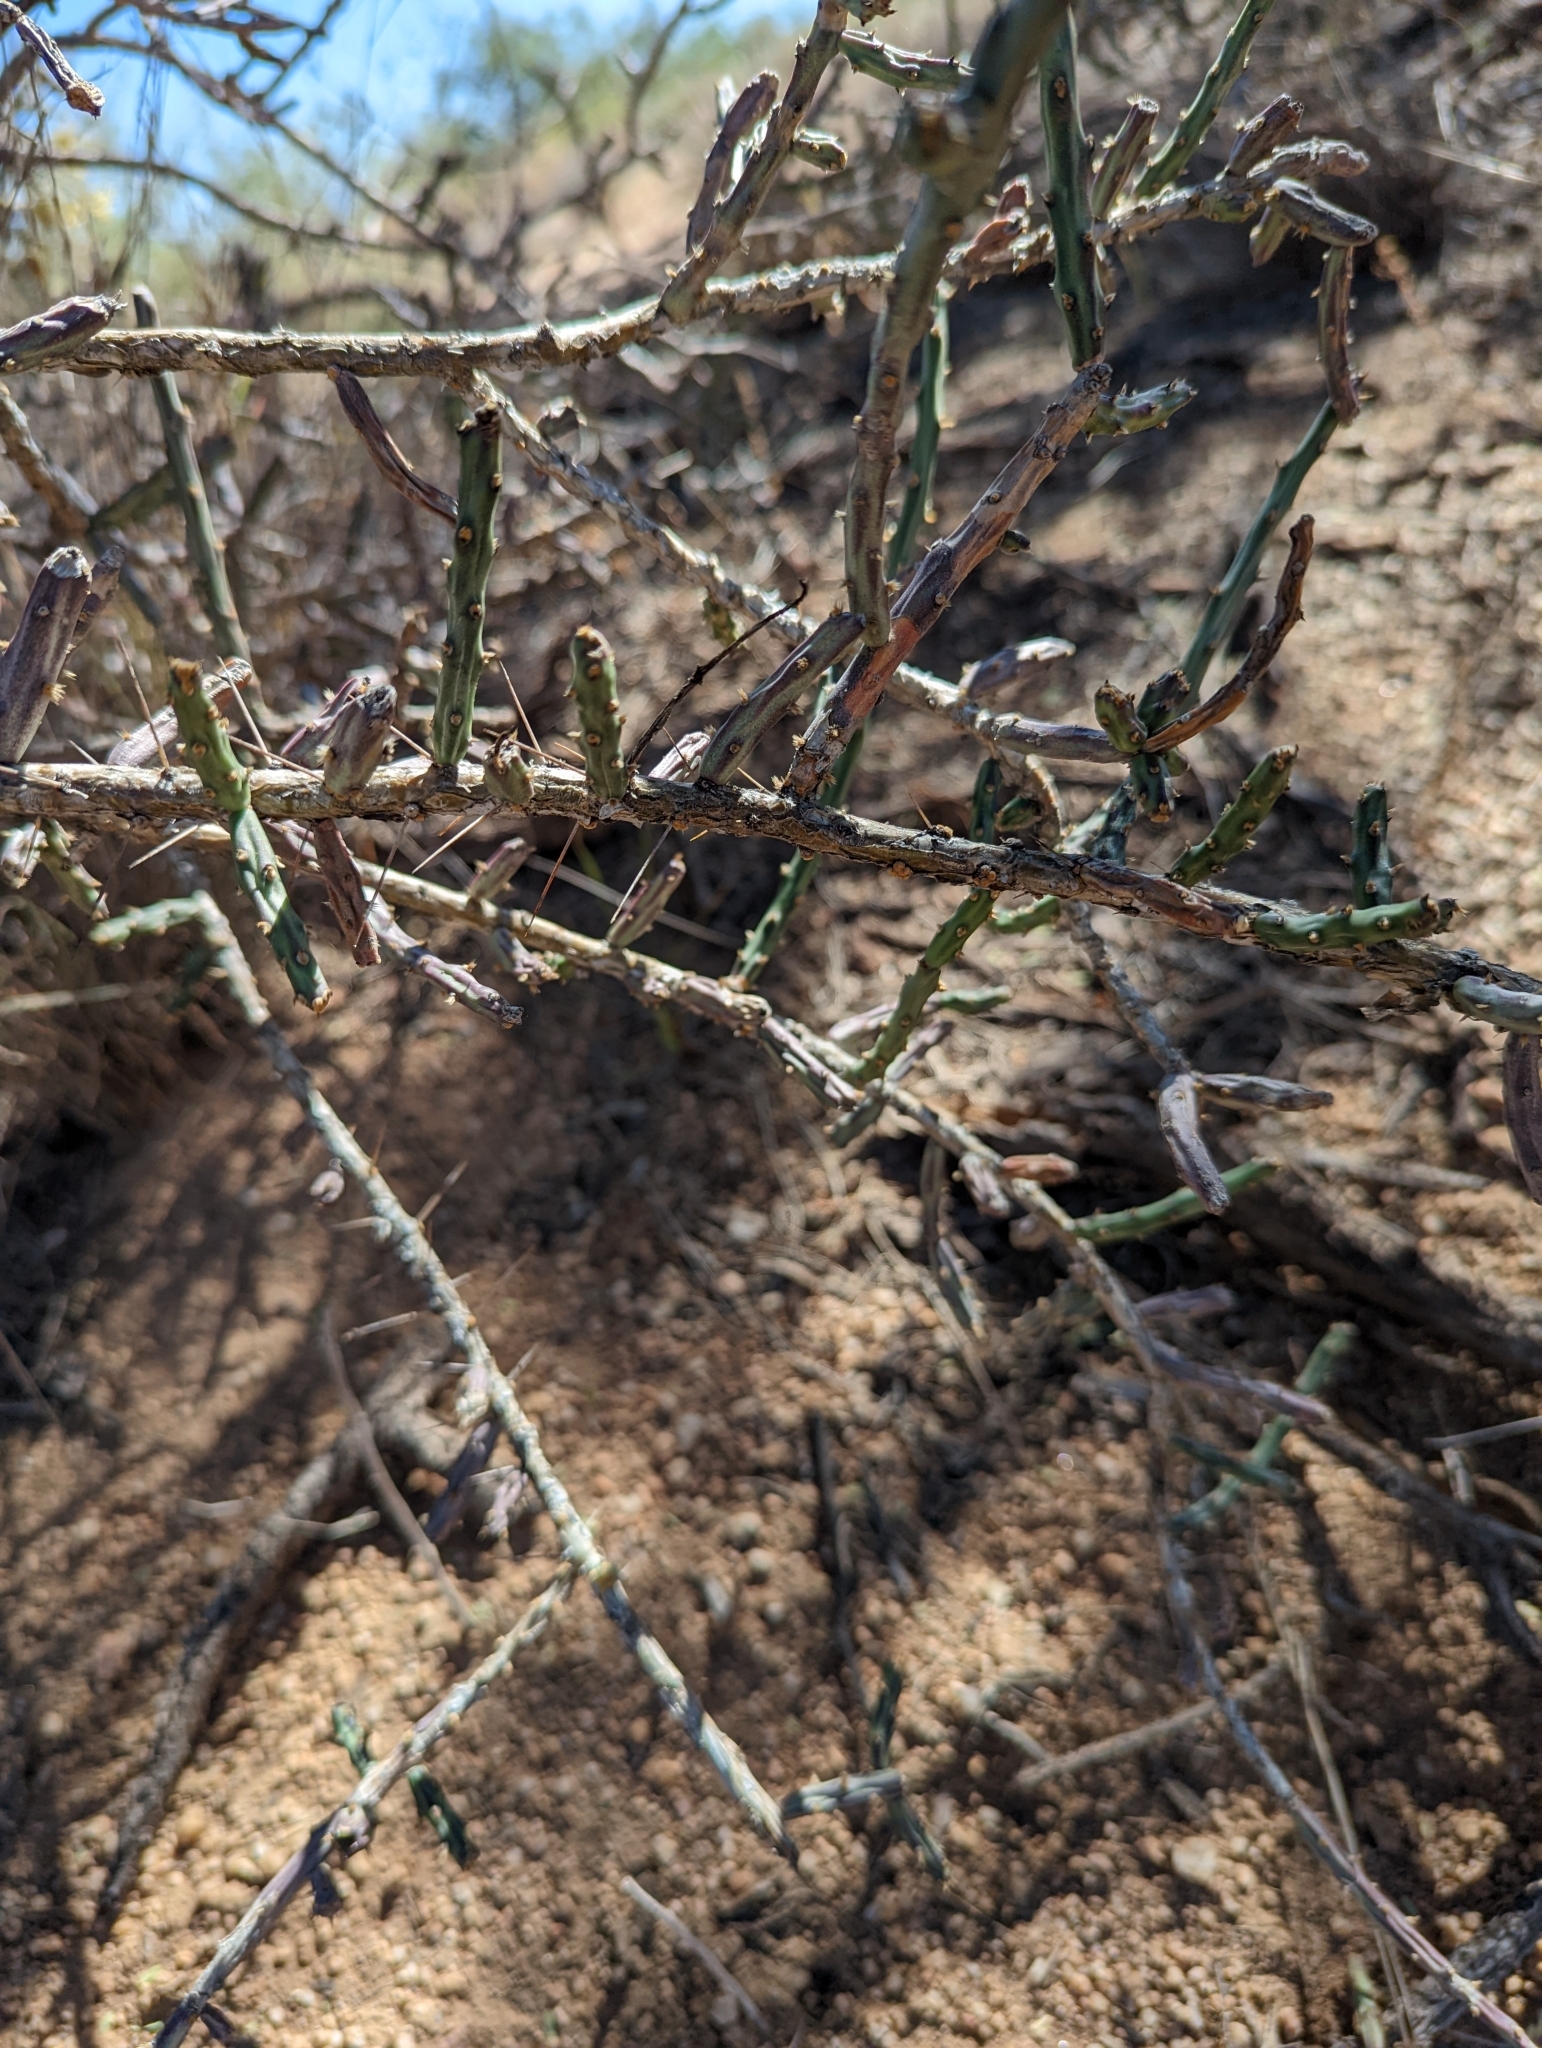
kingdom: Plantae
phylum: Tracheophyta
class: Magnoliopsida
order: Caryophyllales
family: Cactaceae
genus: Cylindropuntia
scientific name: Cylindropuntia leptocaulis
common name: Christmas cactus
